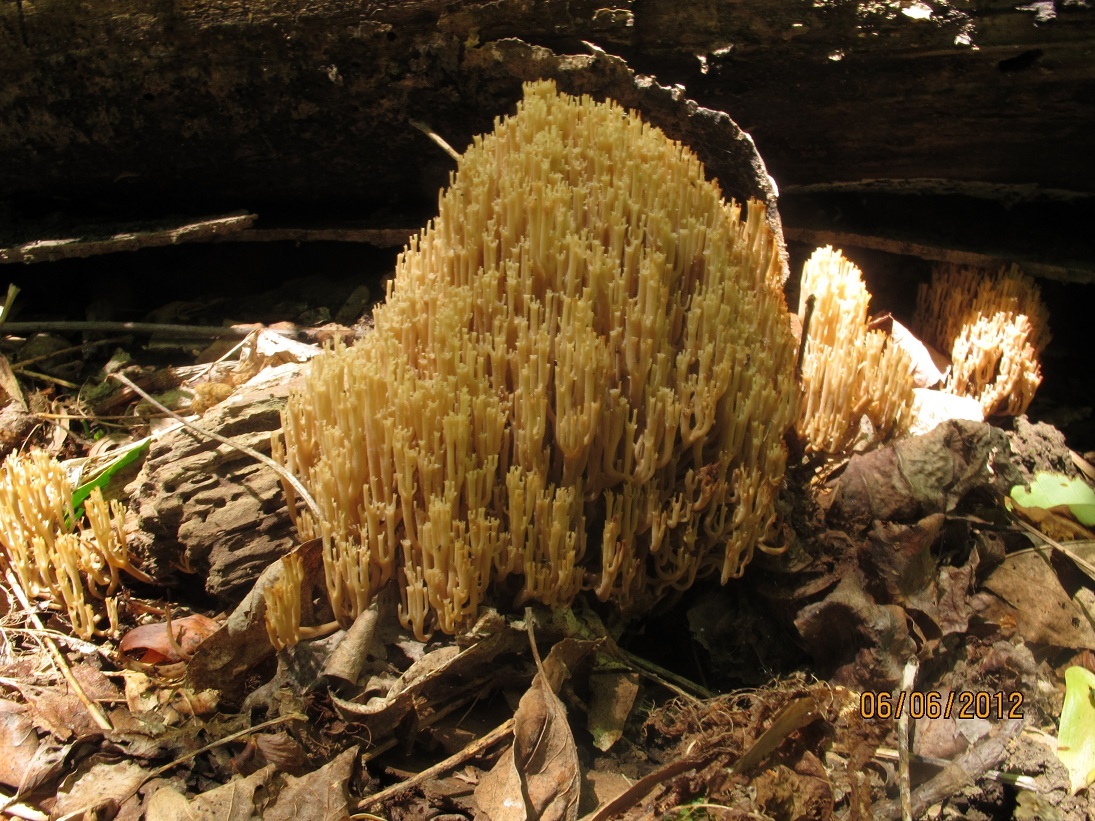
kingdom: Fungi
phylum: Basidiomycota
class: Agaricomycetes
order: Russulales
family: Auriscalpiaceae
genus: Artomyces
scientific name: Artomyces pyxidatus
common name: Crown-tipped coral fungus
